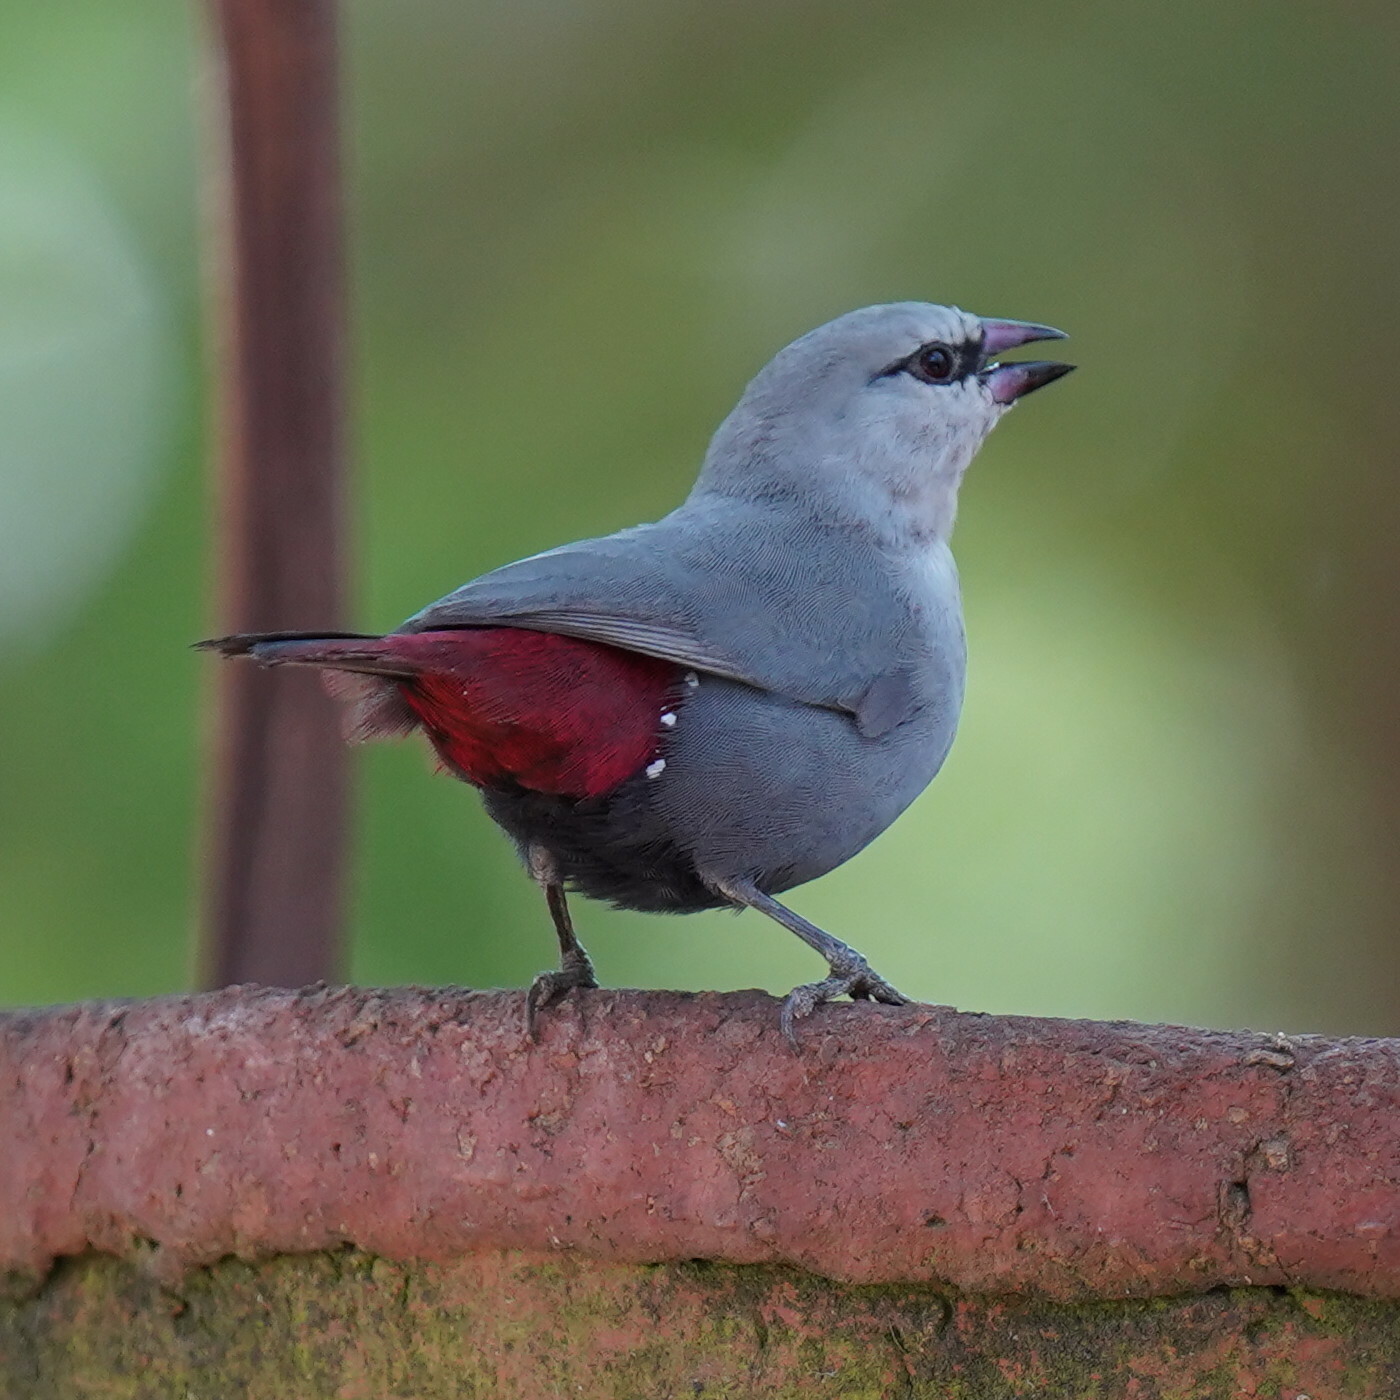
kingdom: Animalia
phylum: Chordata
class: Aves
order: Passeriformes
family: Estrildidae
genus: Estrilda
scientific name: Estrilda caerulescens
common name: Lavender waxbill
